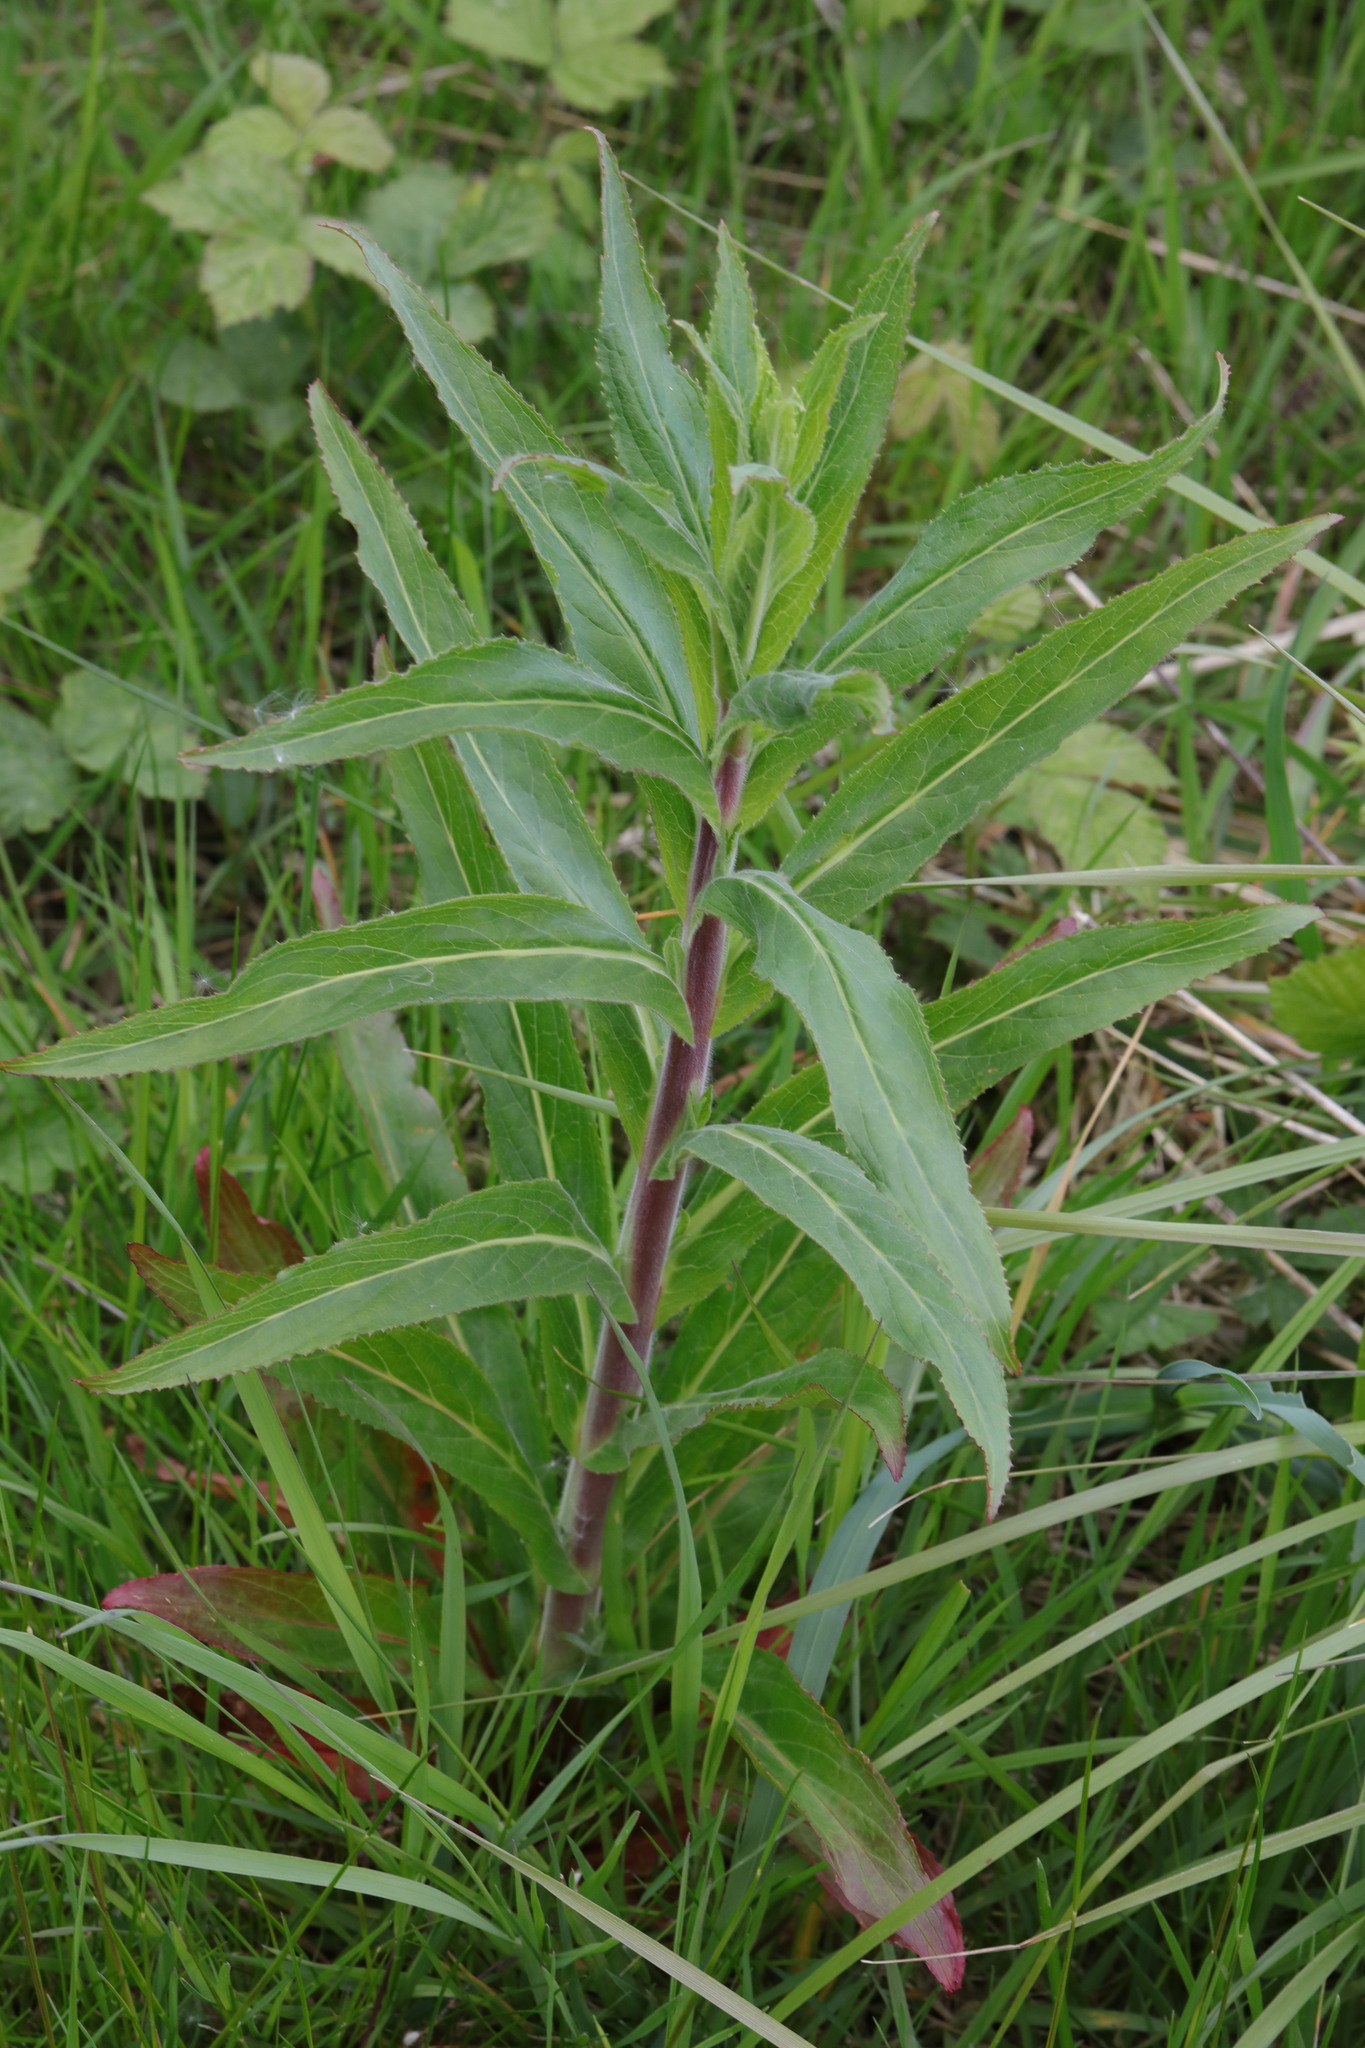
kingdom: Plantae
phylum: Tracheophyta
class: Magnoliopsida
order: Myrtales
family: Onagraceae
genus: Epilobium
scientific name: Epilobium hirsutum
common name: Great willowherb
